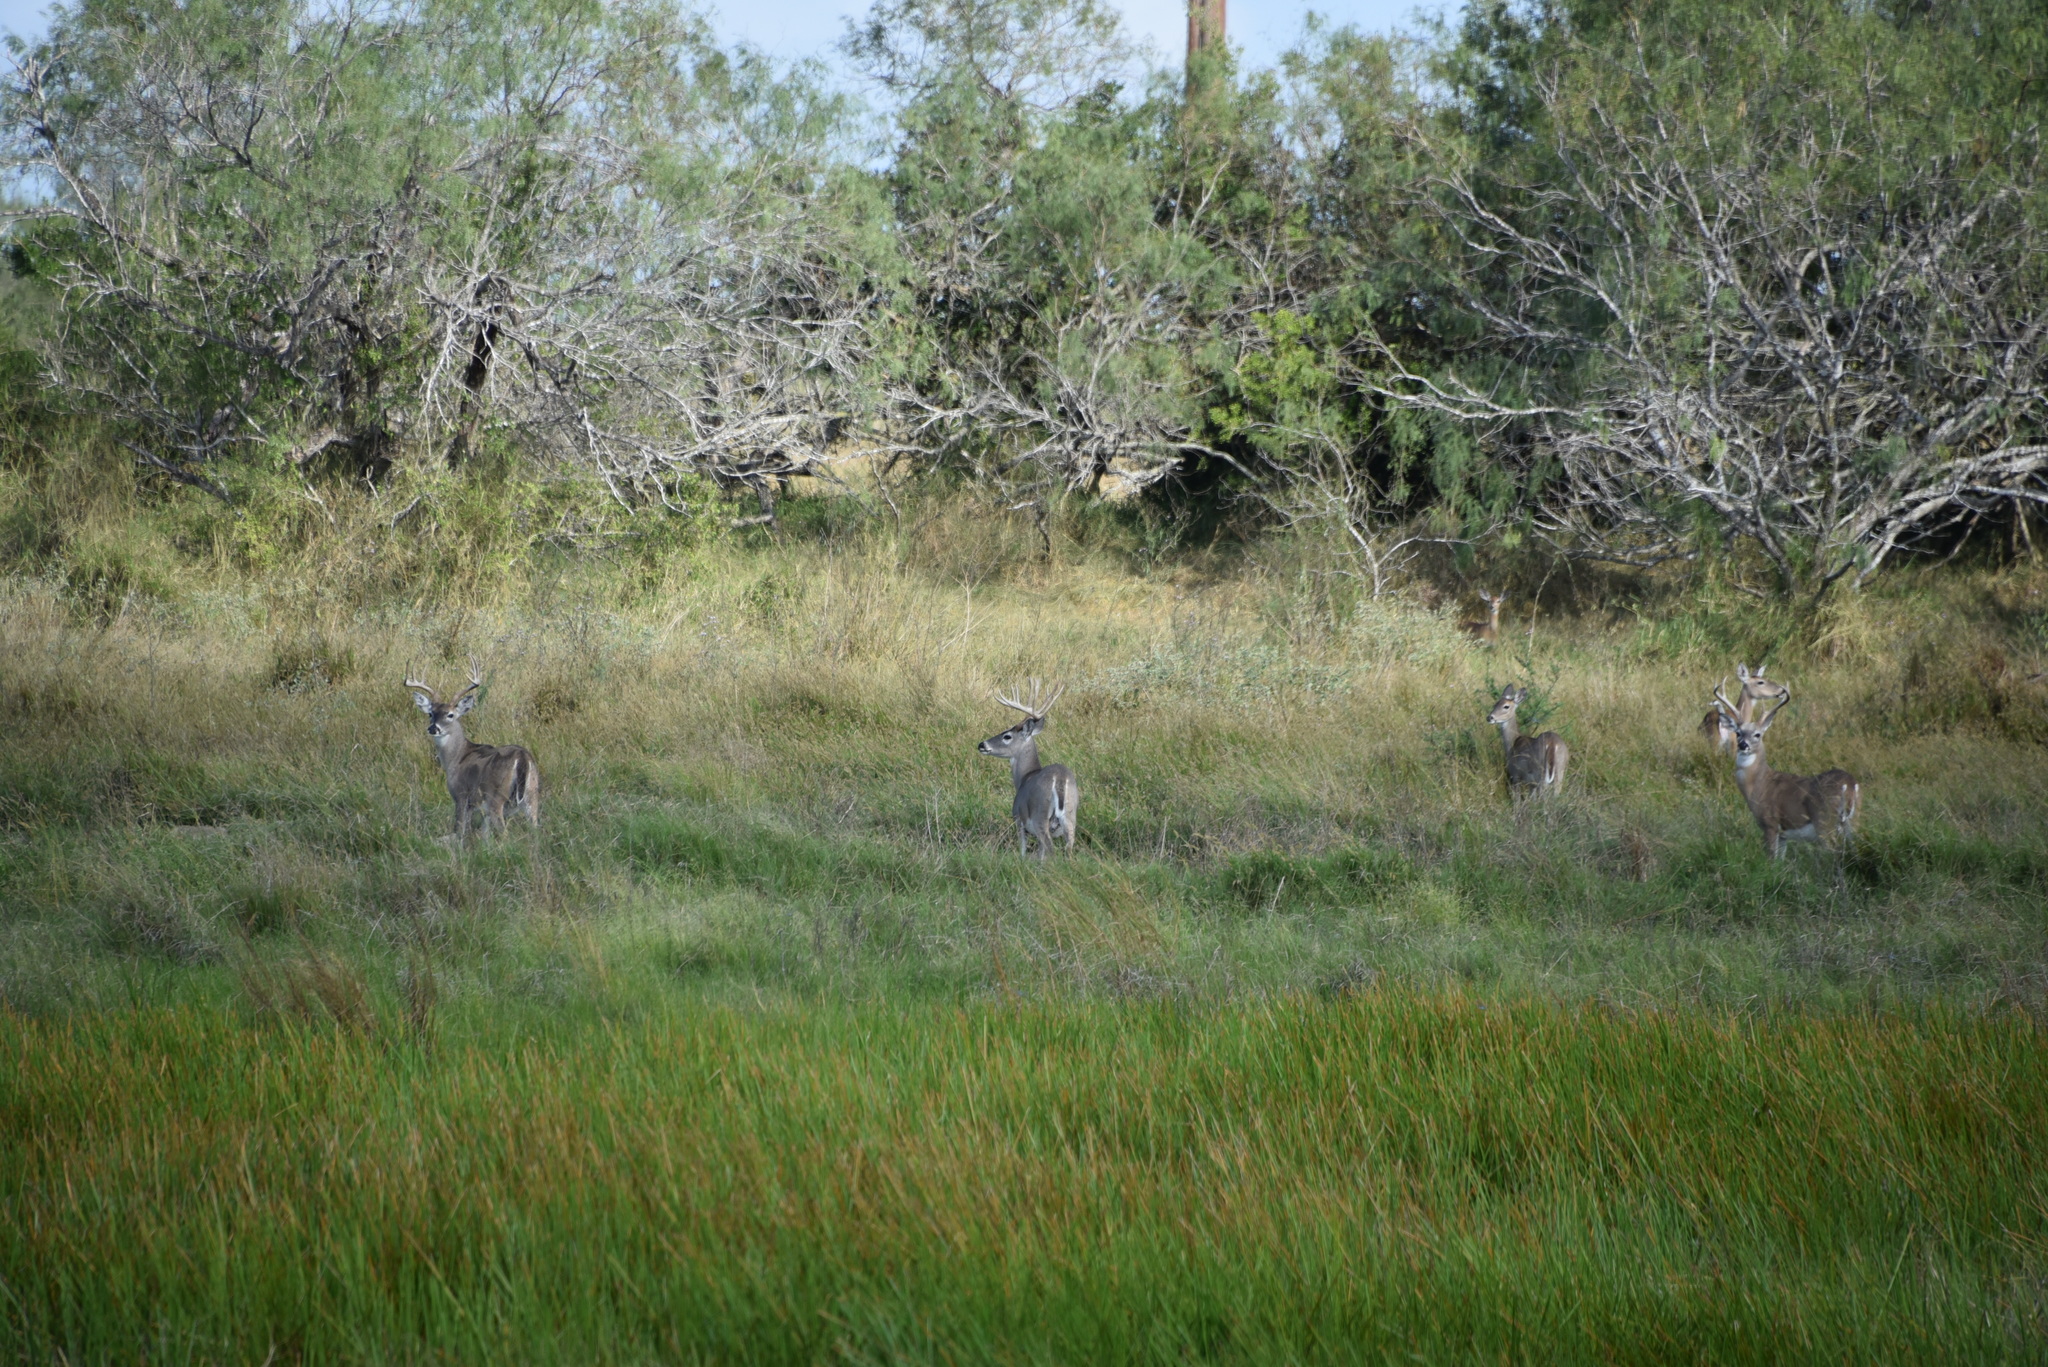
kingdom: Animalia
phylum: Chordata
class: Mammalia
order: Artiodactyla
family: Cervidae
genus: Odocoileus
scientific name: Odocoileus virginianus
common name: White-tailed deer
